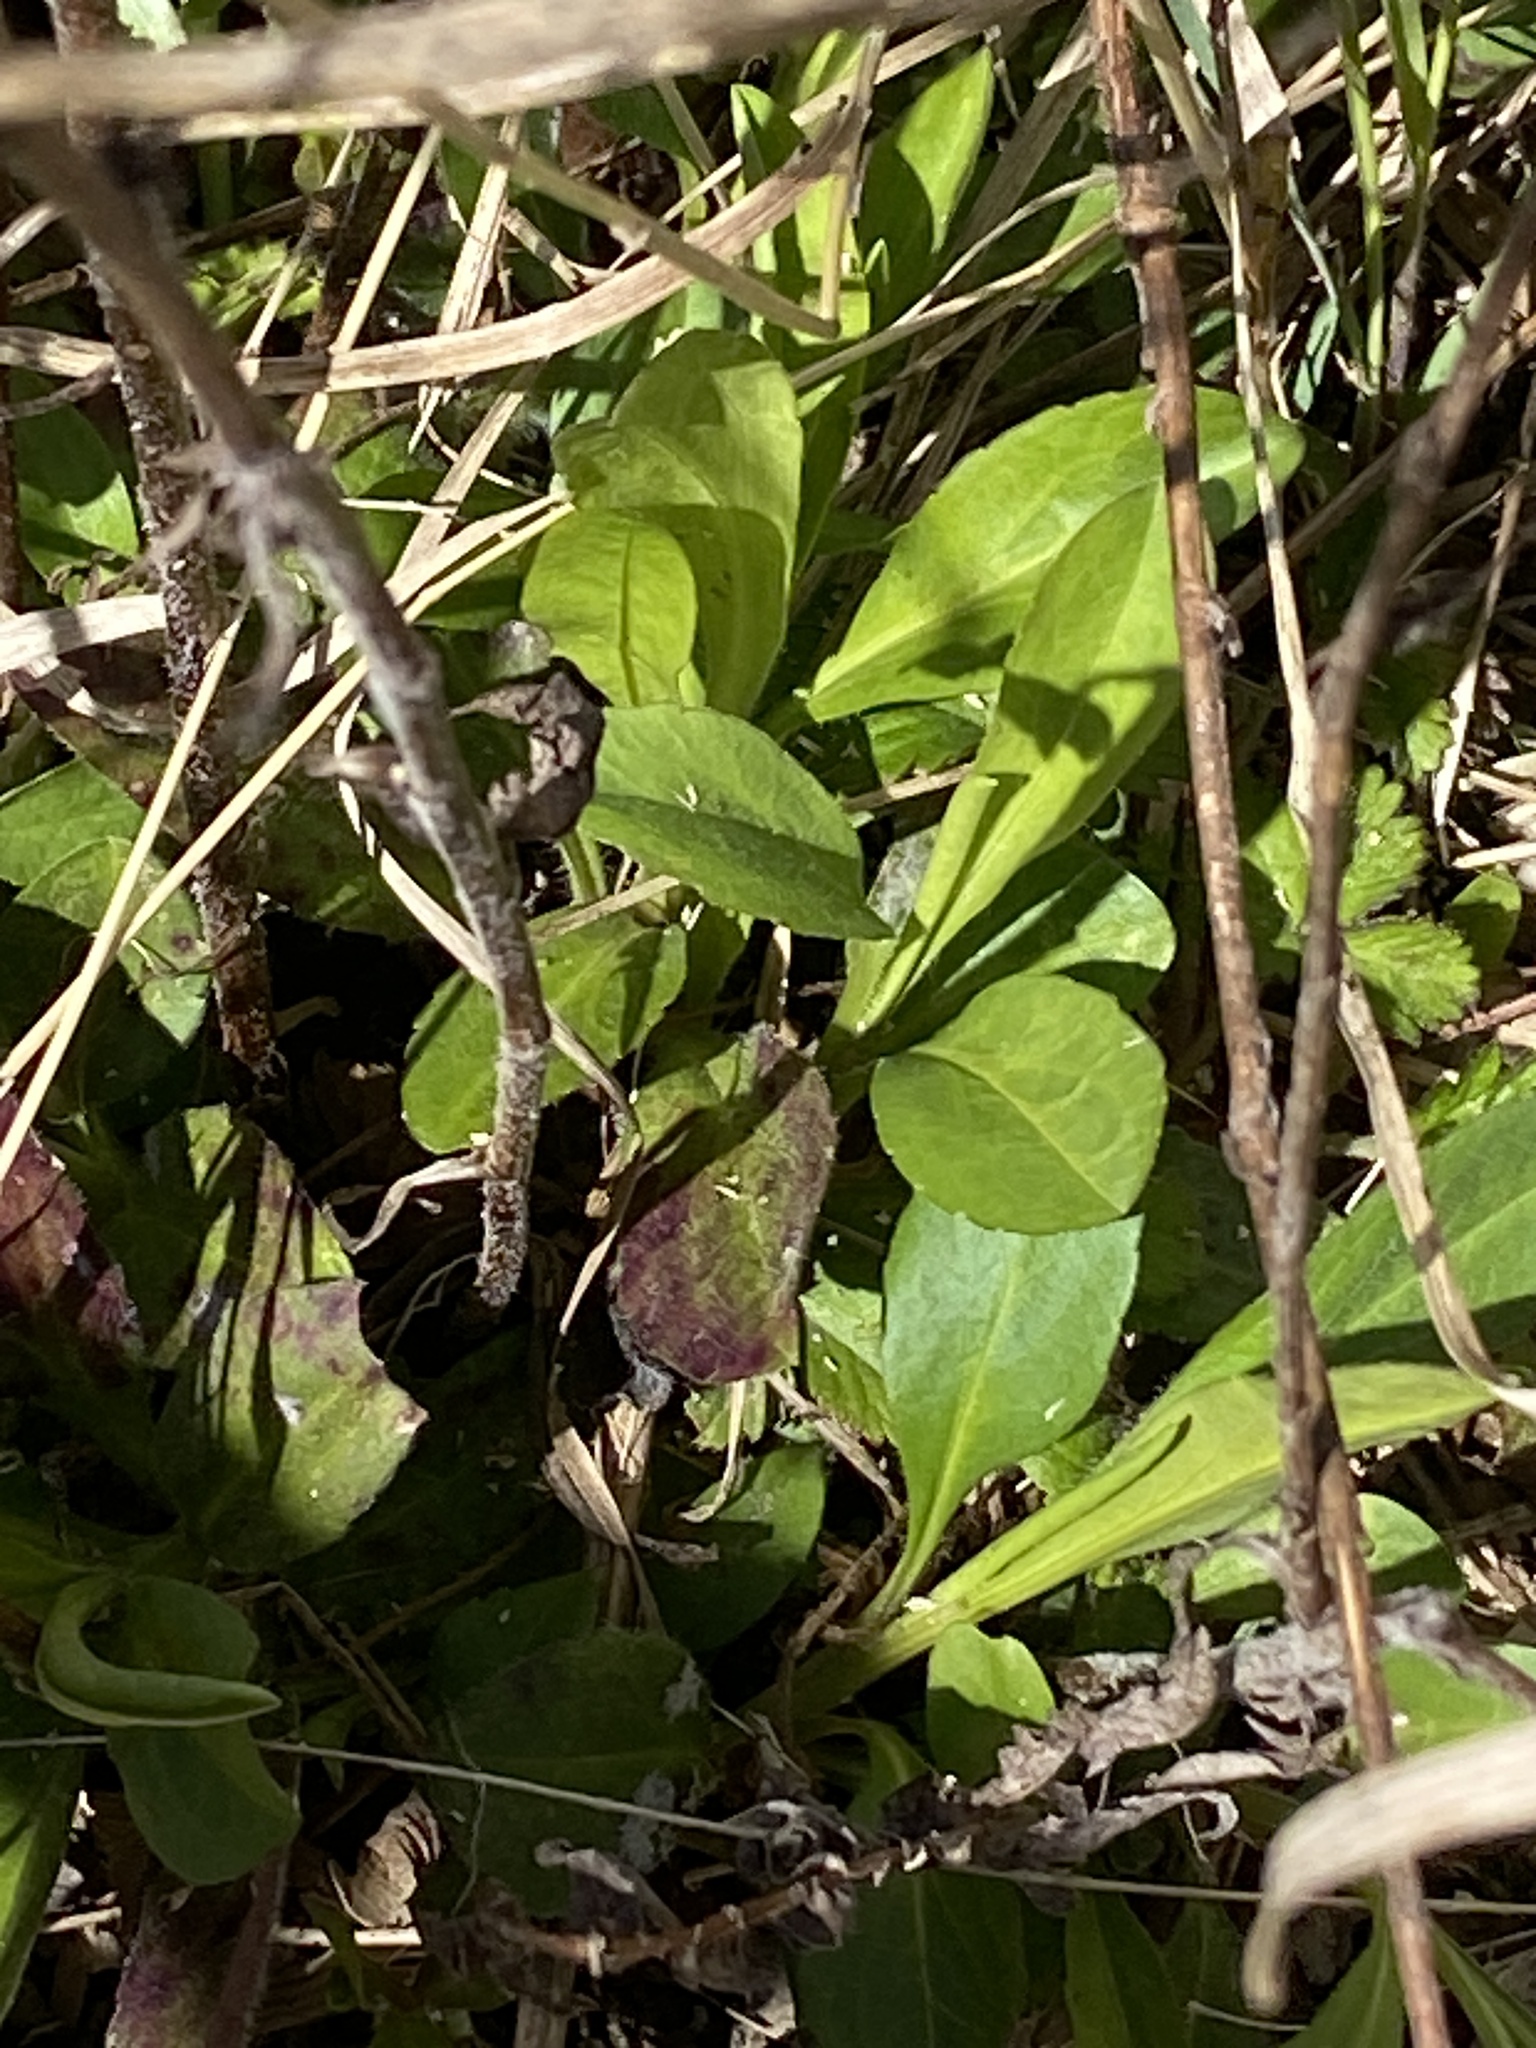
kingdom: Plantae
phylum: Tracheophyta
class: Magnoliopsida
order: Asterales
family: Asteraceae
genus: Symphyotrichum
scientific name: Symphyotrichum pilosum
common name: Awl aster
